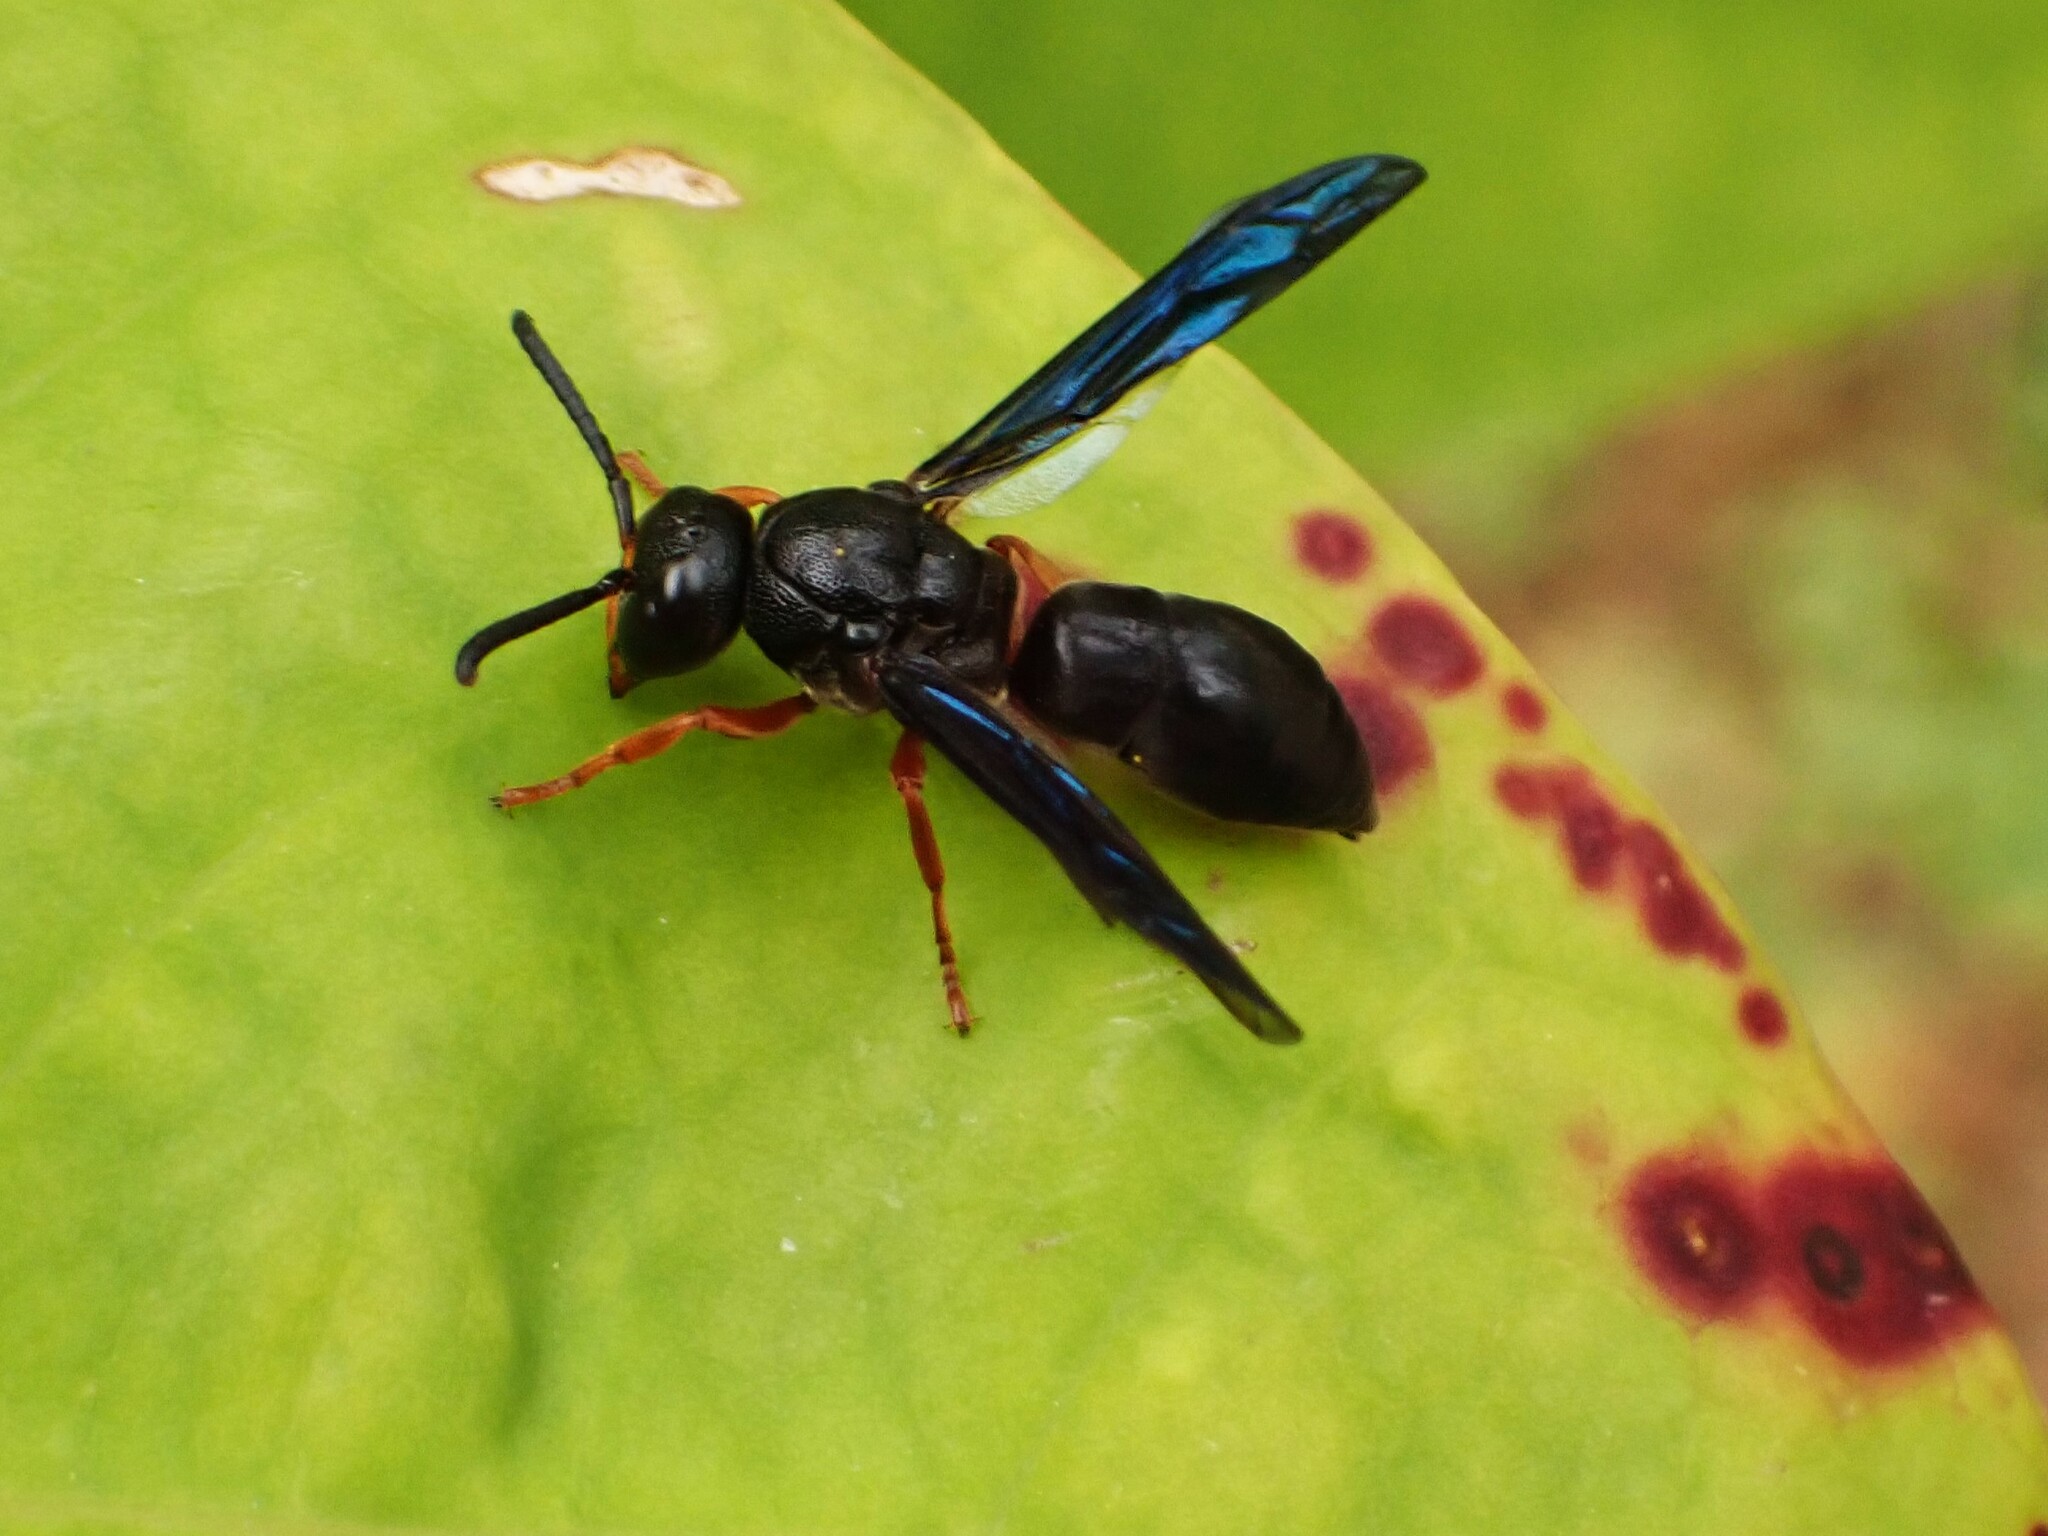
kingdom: Animalia
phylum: Arthropoda
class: Insecta
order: Hymenoptera
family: Eumenidae
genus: Anterhynchium
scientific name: Anterhynchium rufipes
